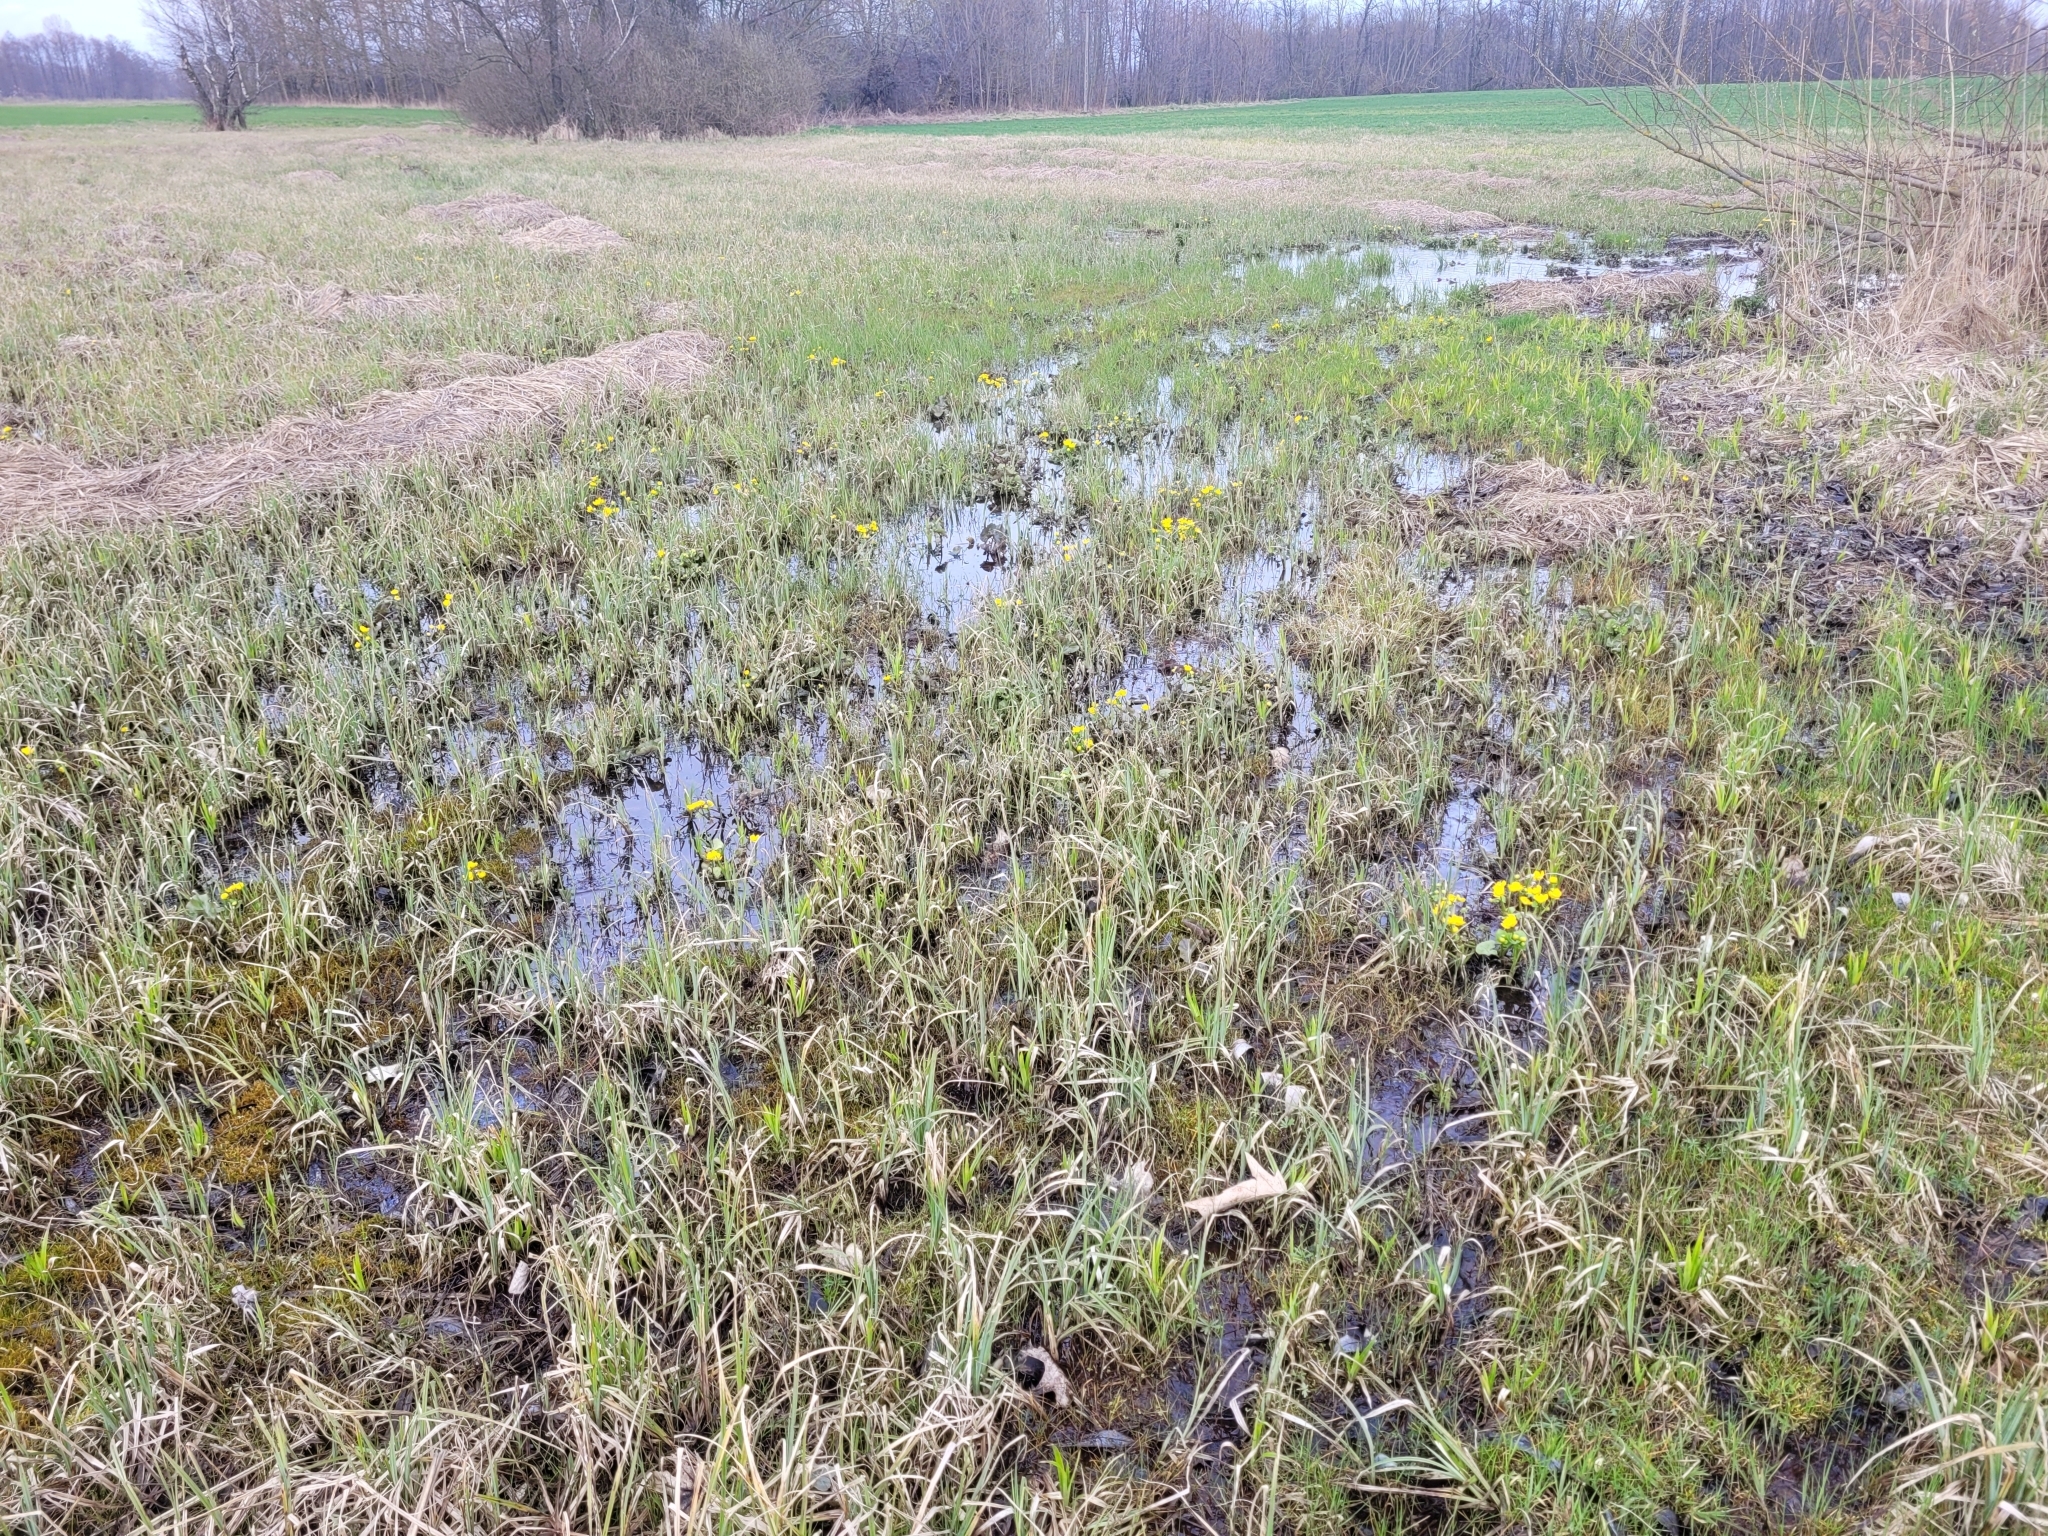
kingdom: Plantae
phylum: Tracheophyta
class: Magnoliopsida
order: Ranunculales
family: Ranunculaceae
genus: Caltha
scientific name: Caltha palustris
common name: Marsh marigold
